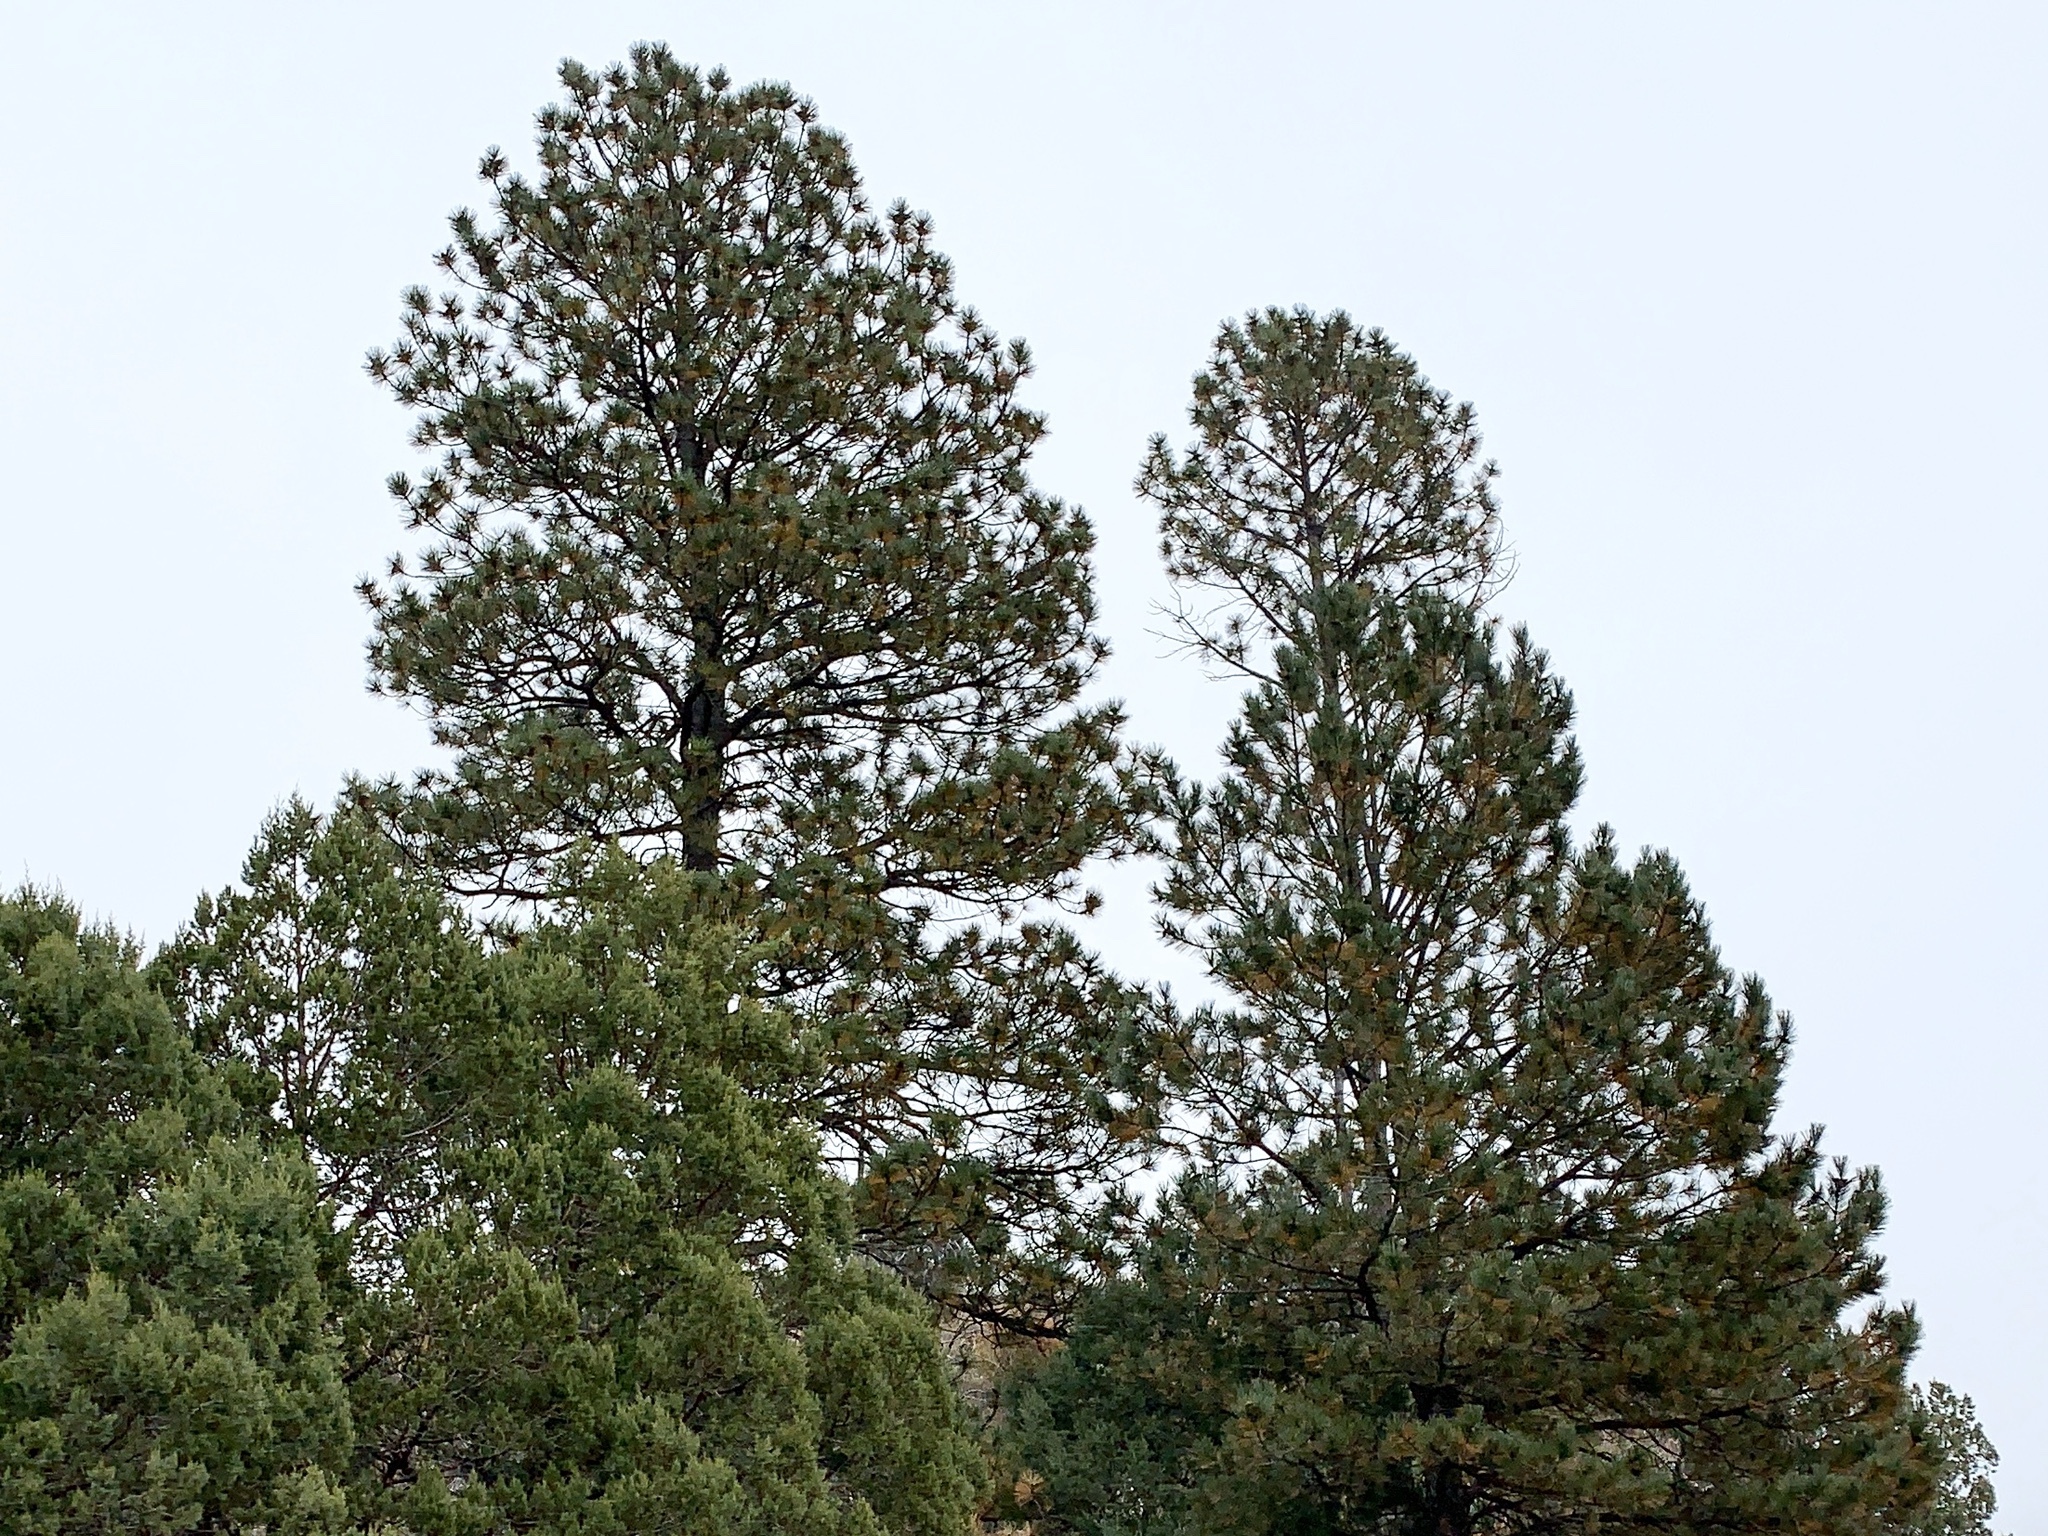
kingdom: Plantae
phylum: Tracheophyta
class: Pinopsida
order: Pinales
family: Pinaceae
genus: Pinus
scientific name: Pinus ponderosa
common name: Western yellow-pine
